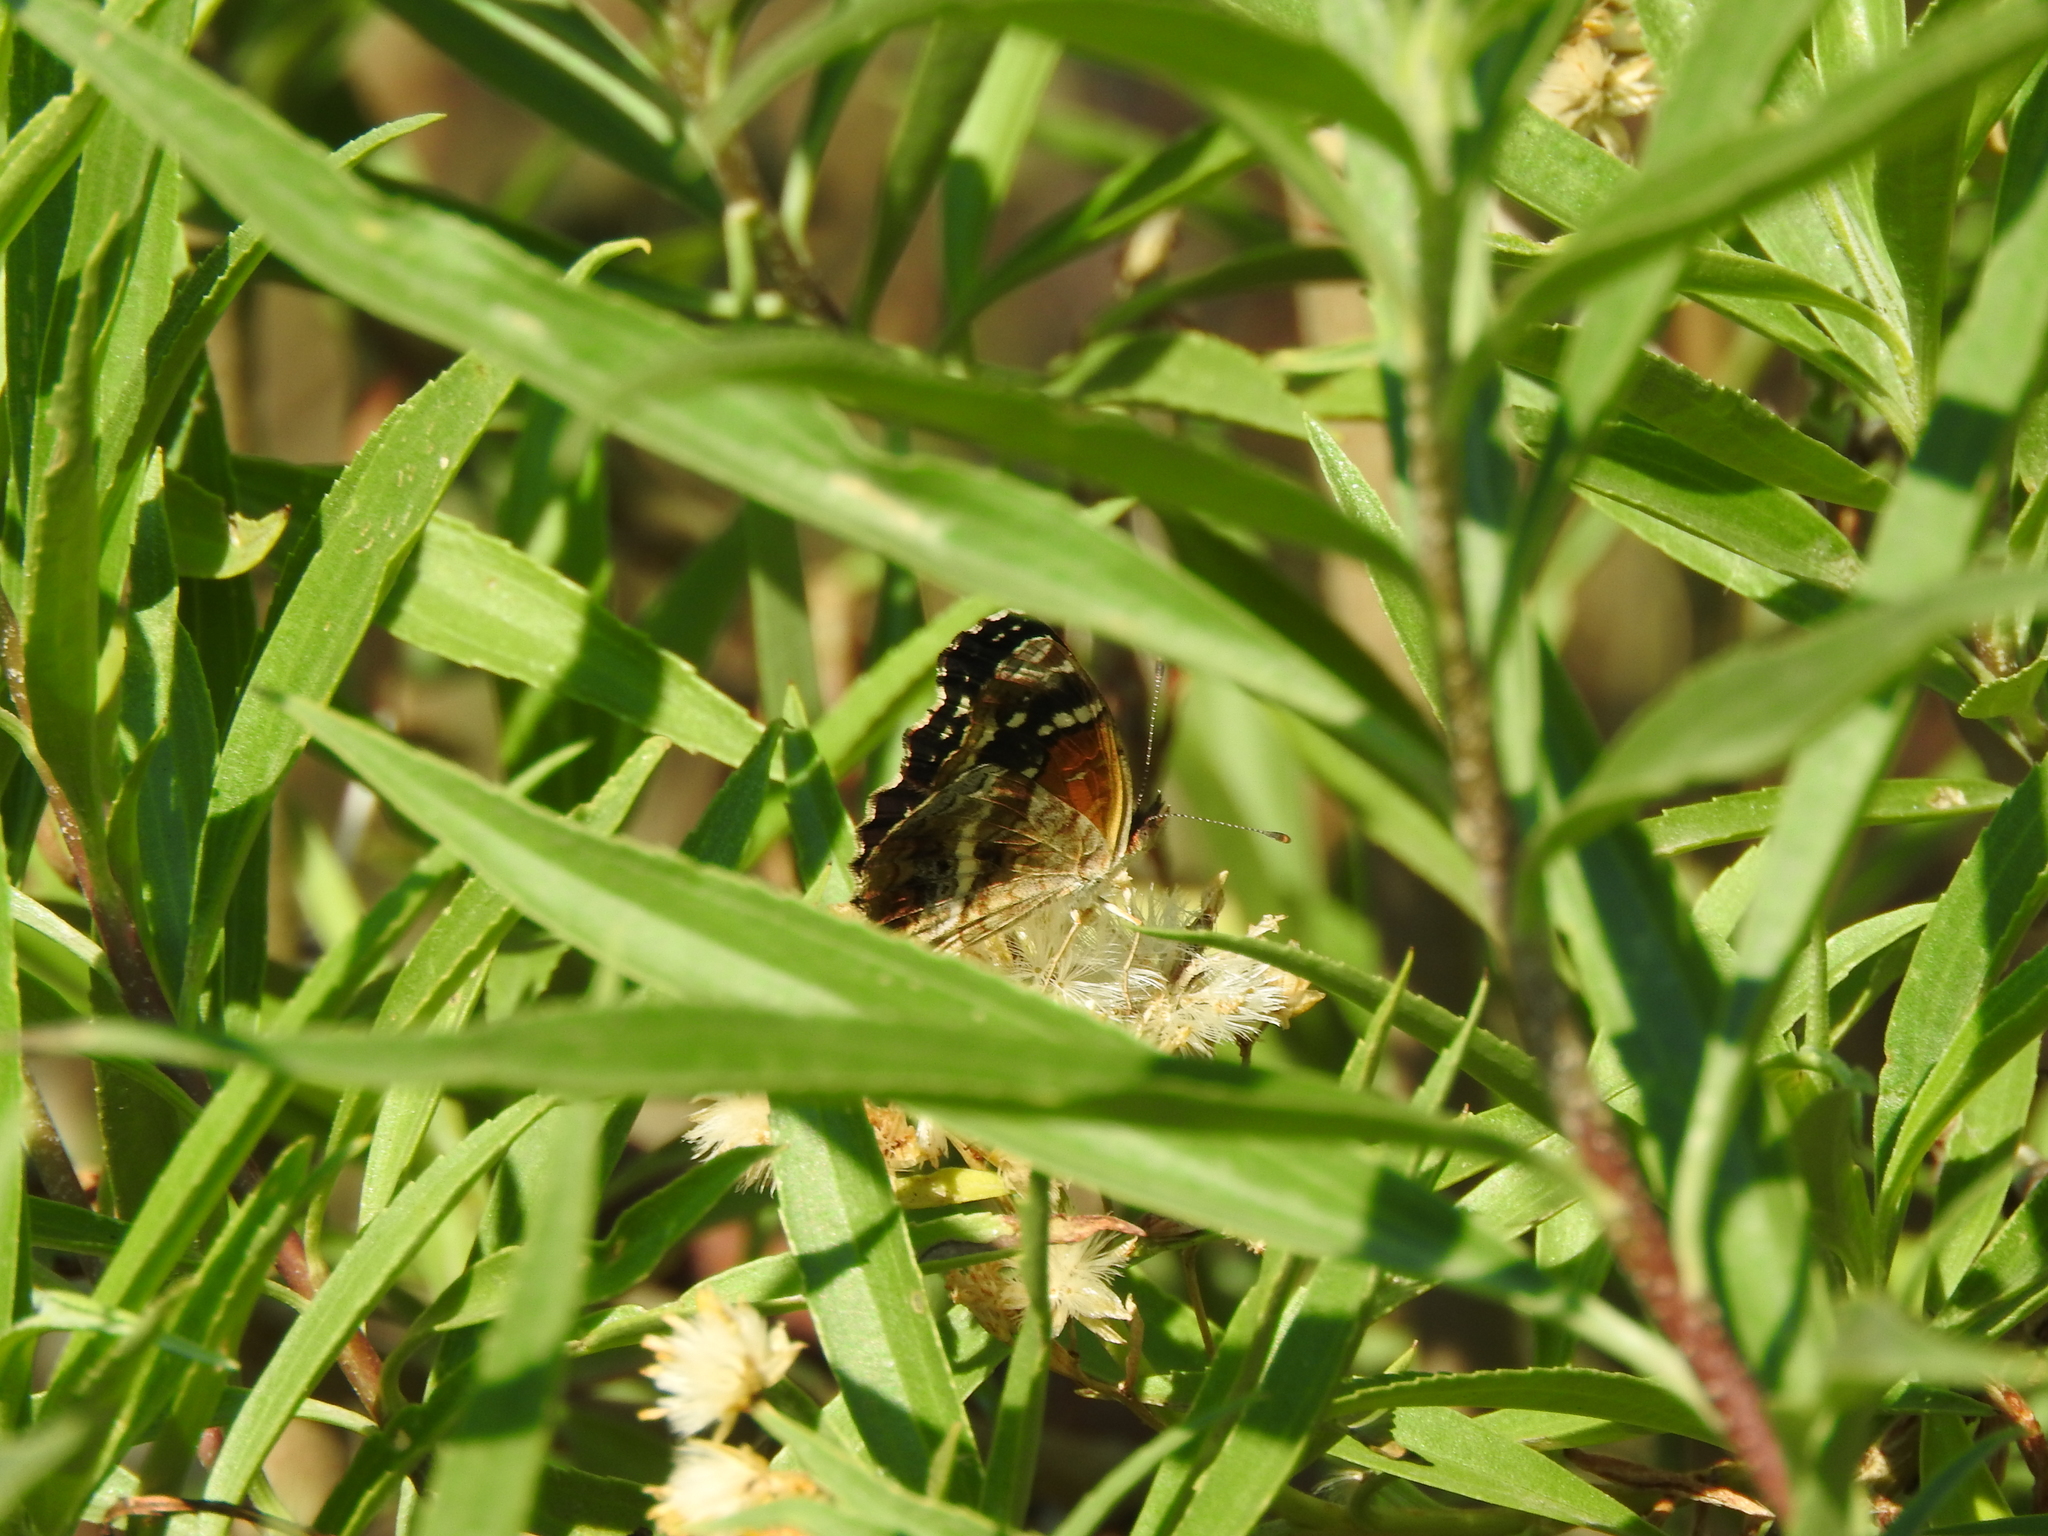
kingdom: Animalia
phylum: Arthropoda
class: Insecta
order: Lepidoptera
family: Nymphalidae
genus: Anthanassa
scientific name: Anthanassa texana
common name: Texan crescent
